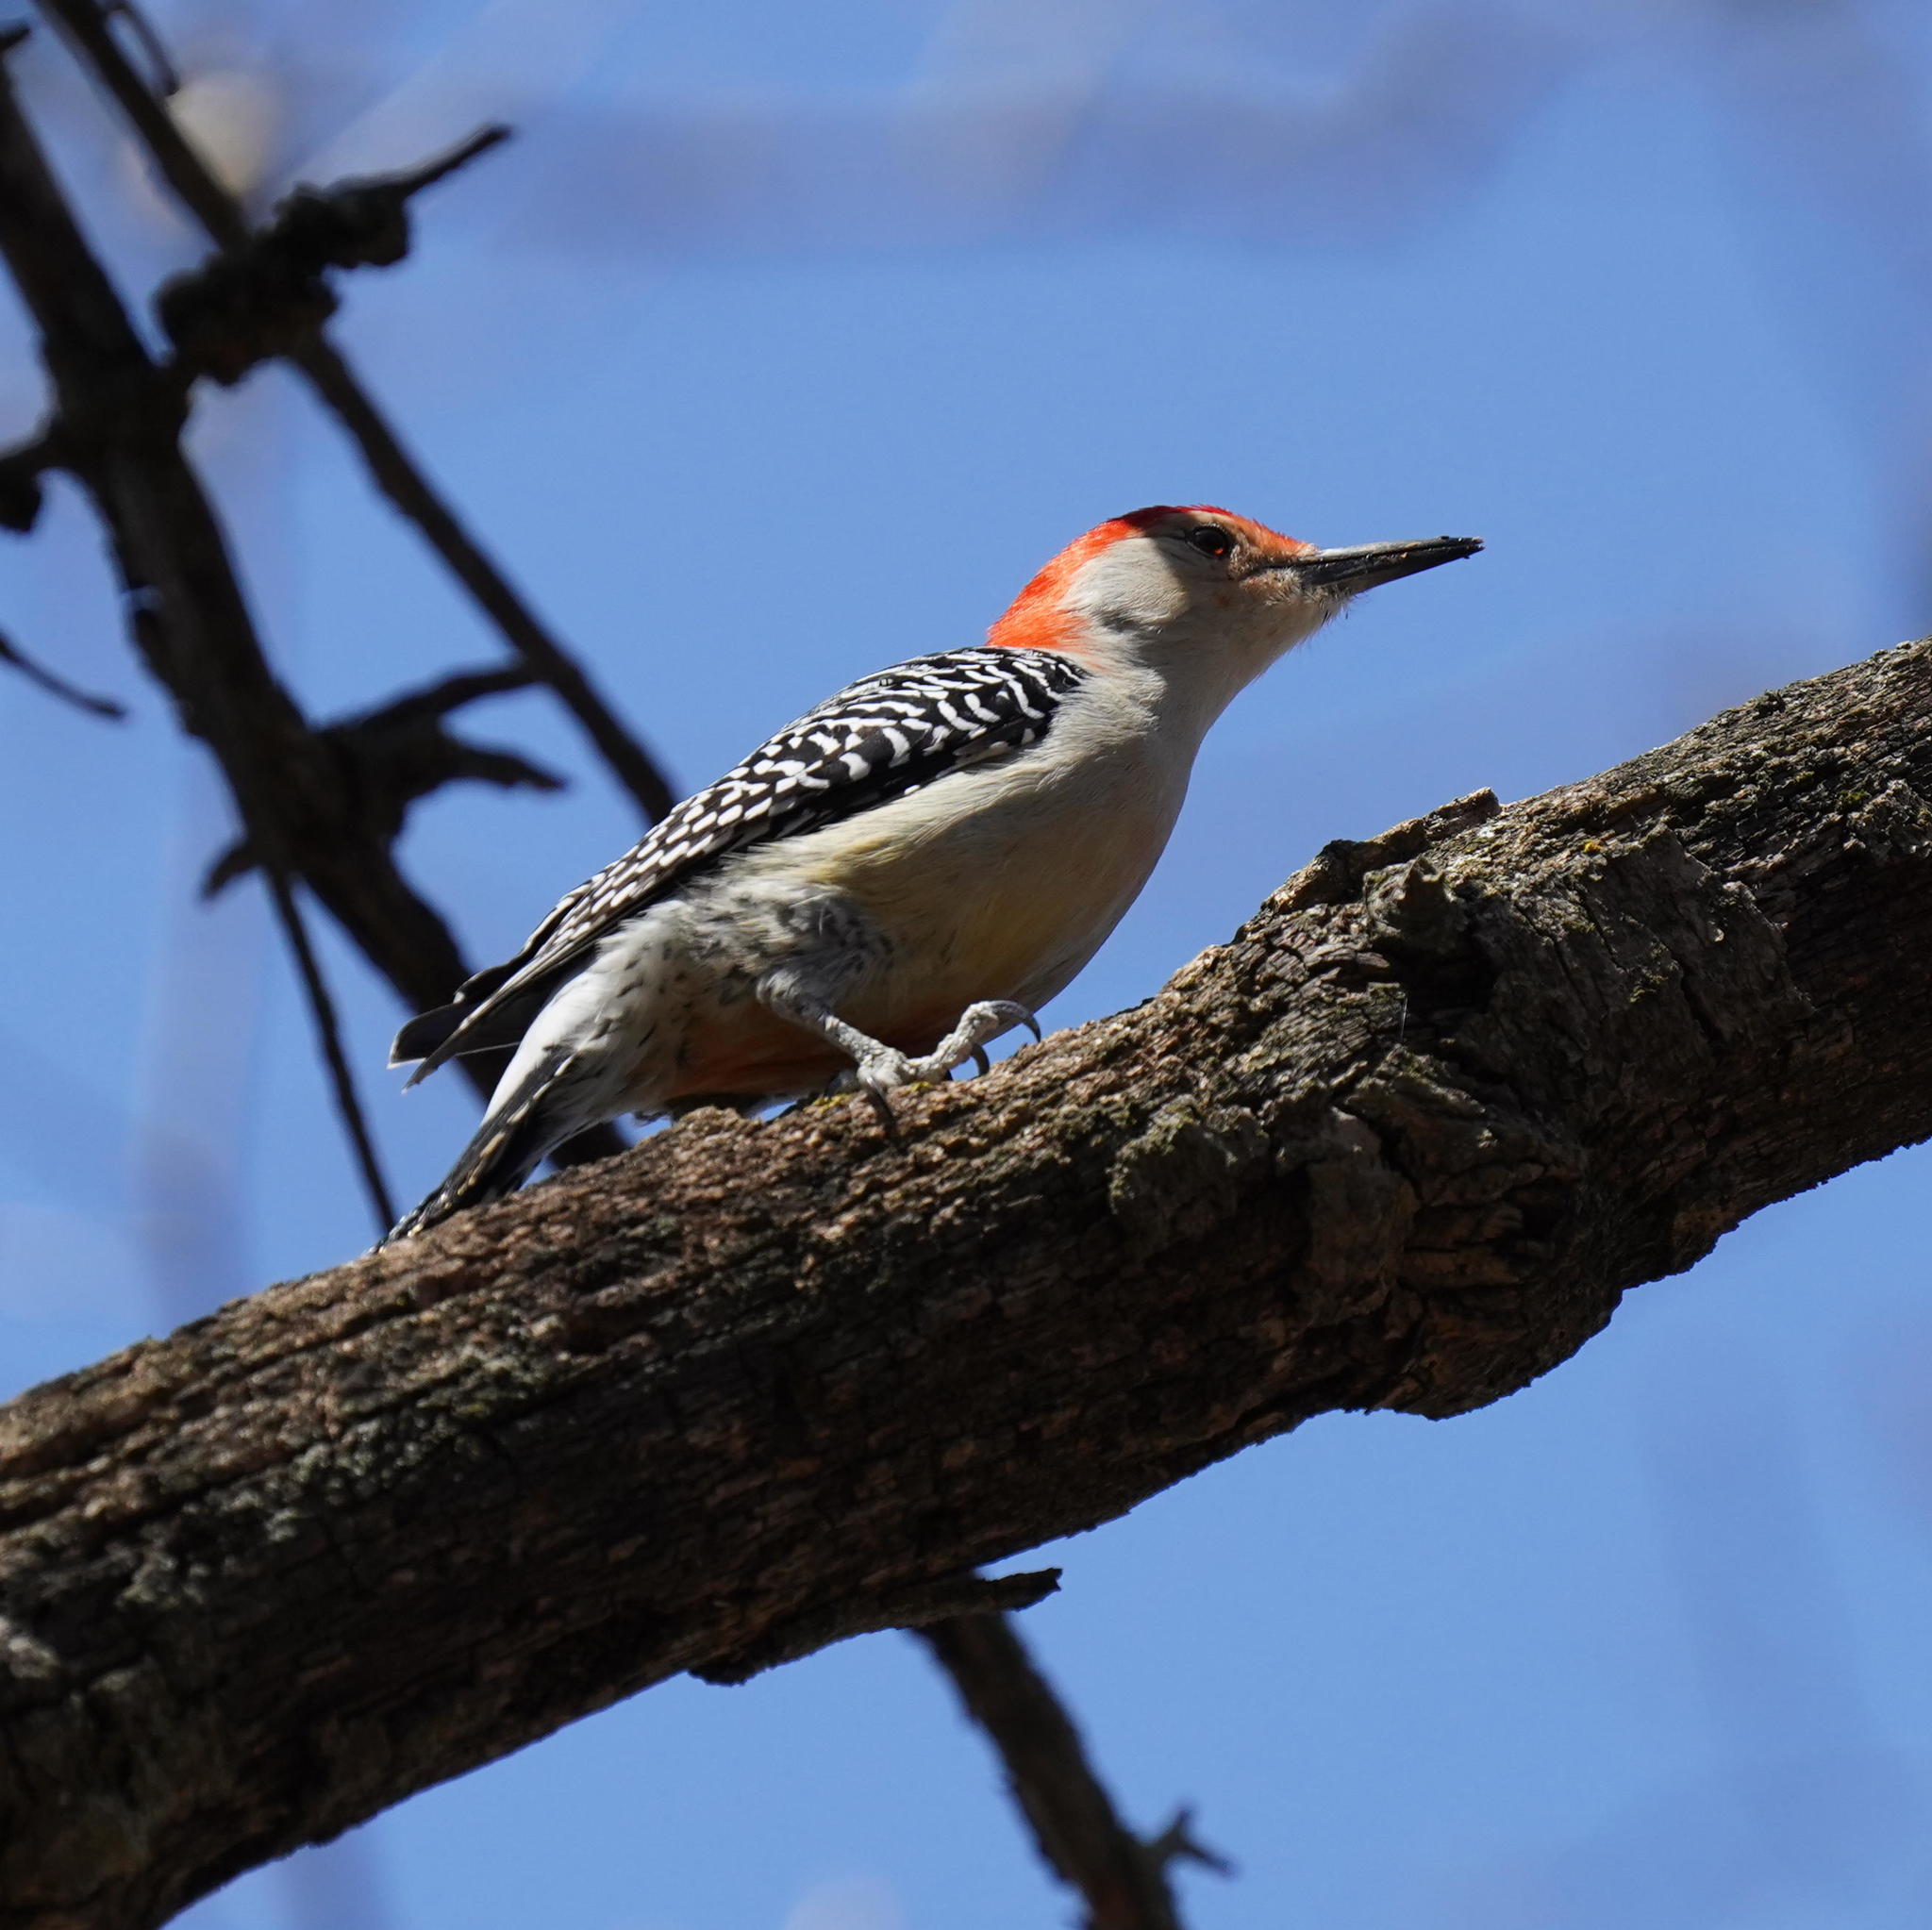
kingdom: Animalia
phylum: Chordata
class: Aves
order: Piciformes
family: Picidae
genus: Melanerpes
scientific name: Melanerpes carolinus
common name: Red-bellied woodpecker
